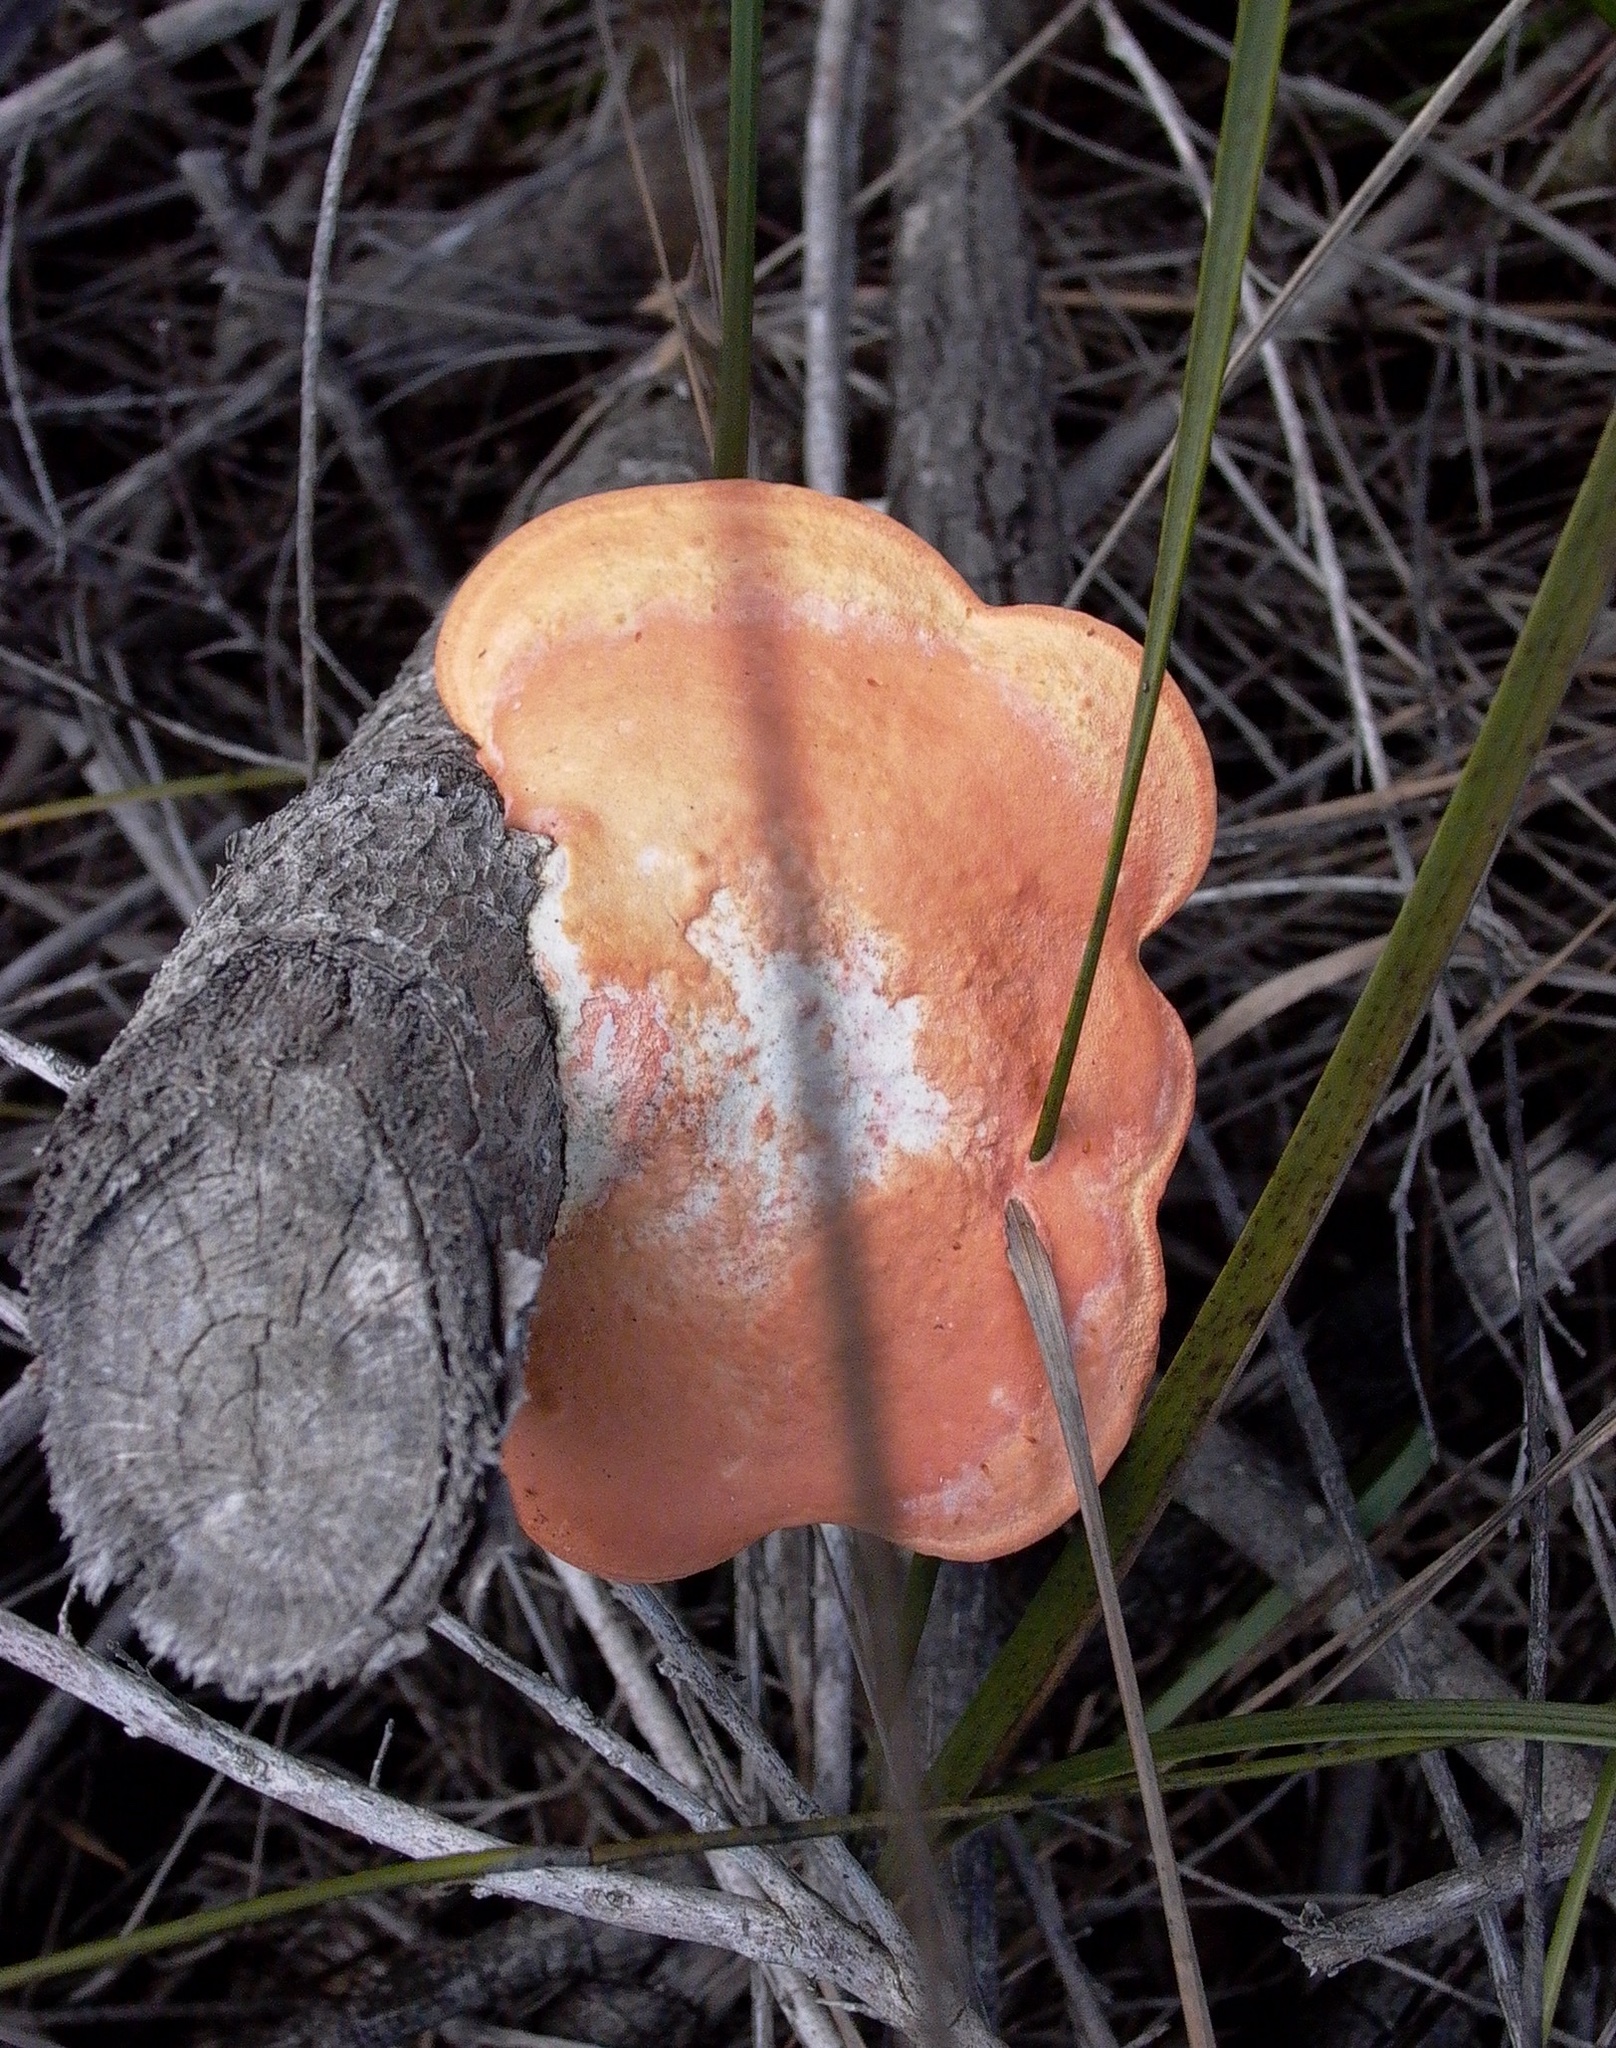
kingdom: Fungi
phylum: Basidiomycota
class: Agaricomycetes
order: Polyporales
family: Polyporaceae
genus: Trametes
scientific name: Trametes coccinea
